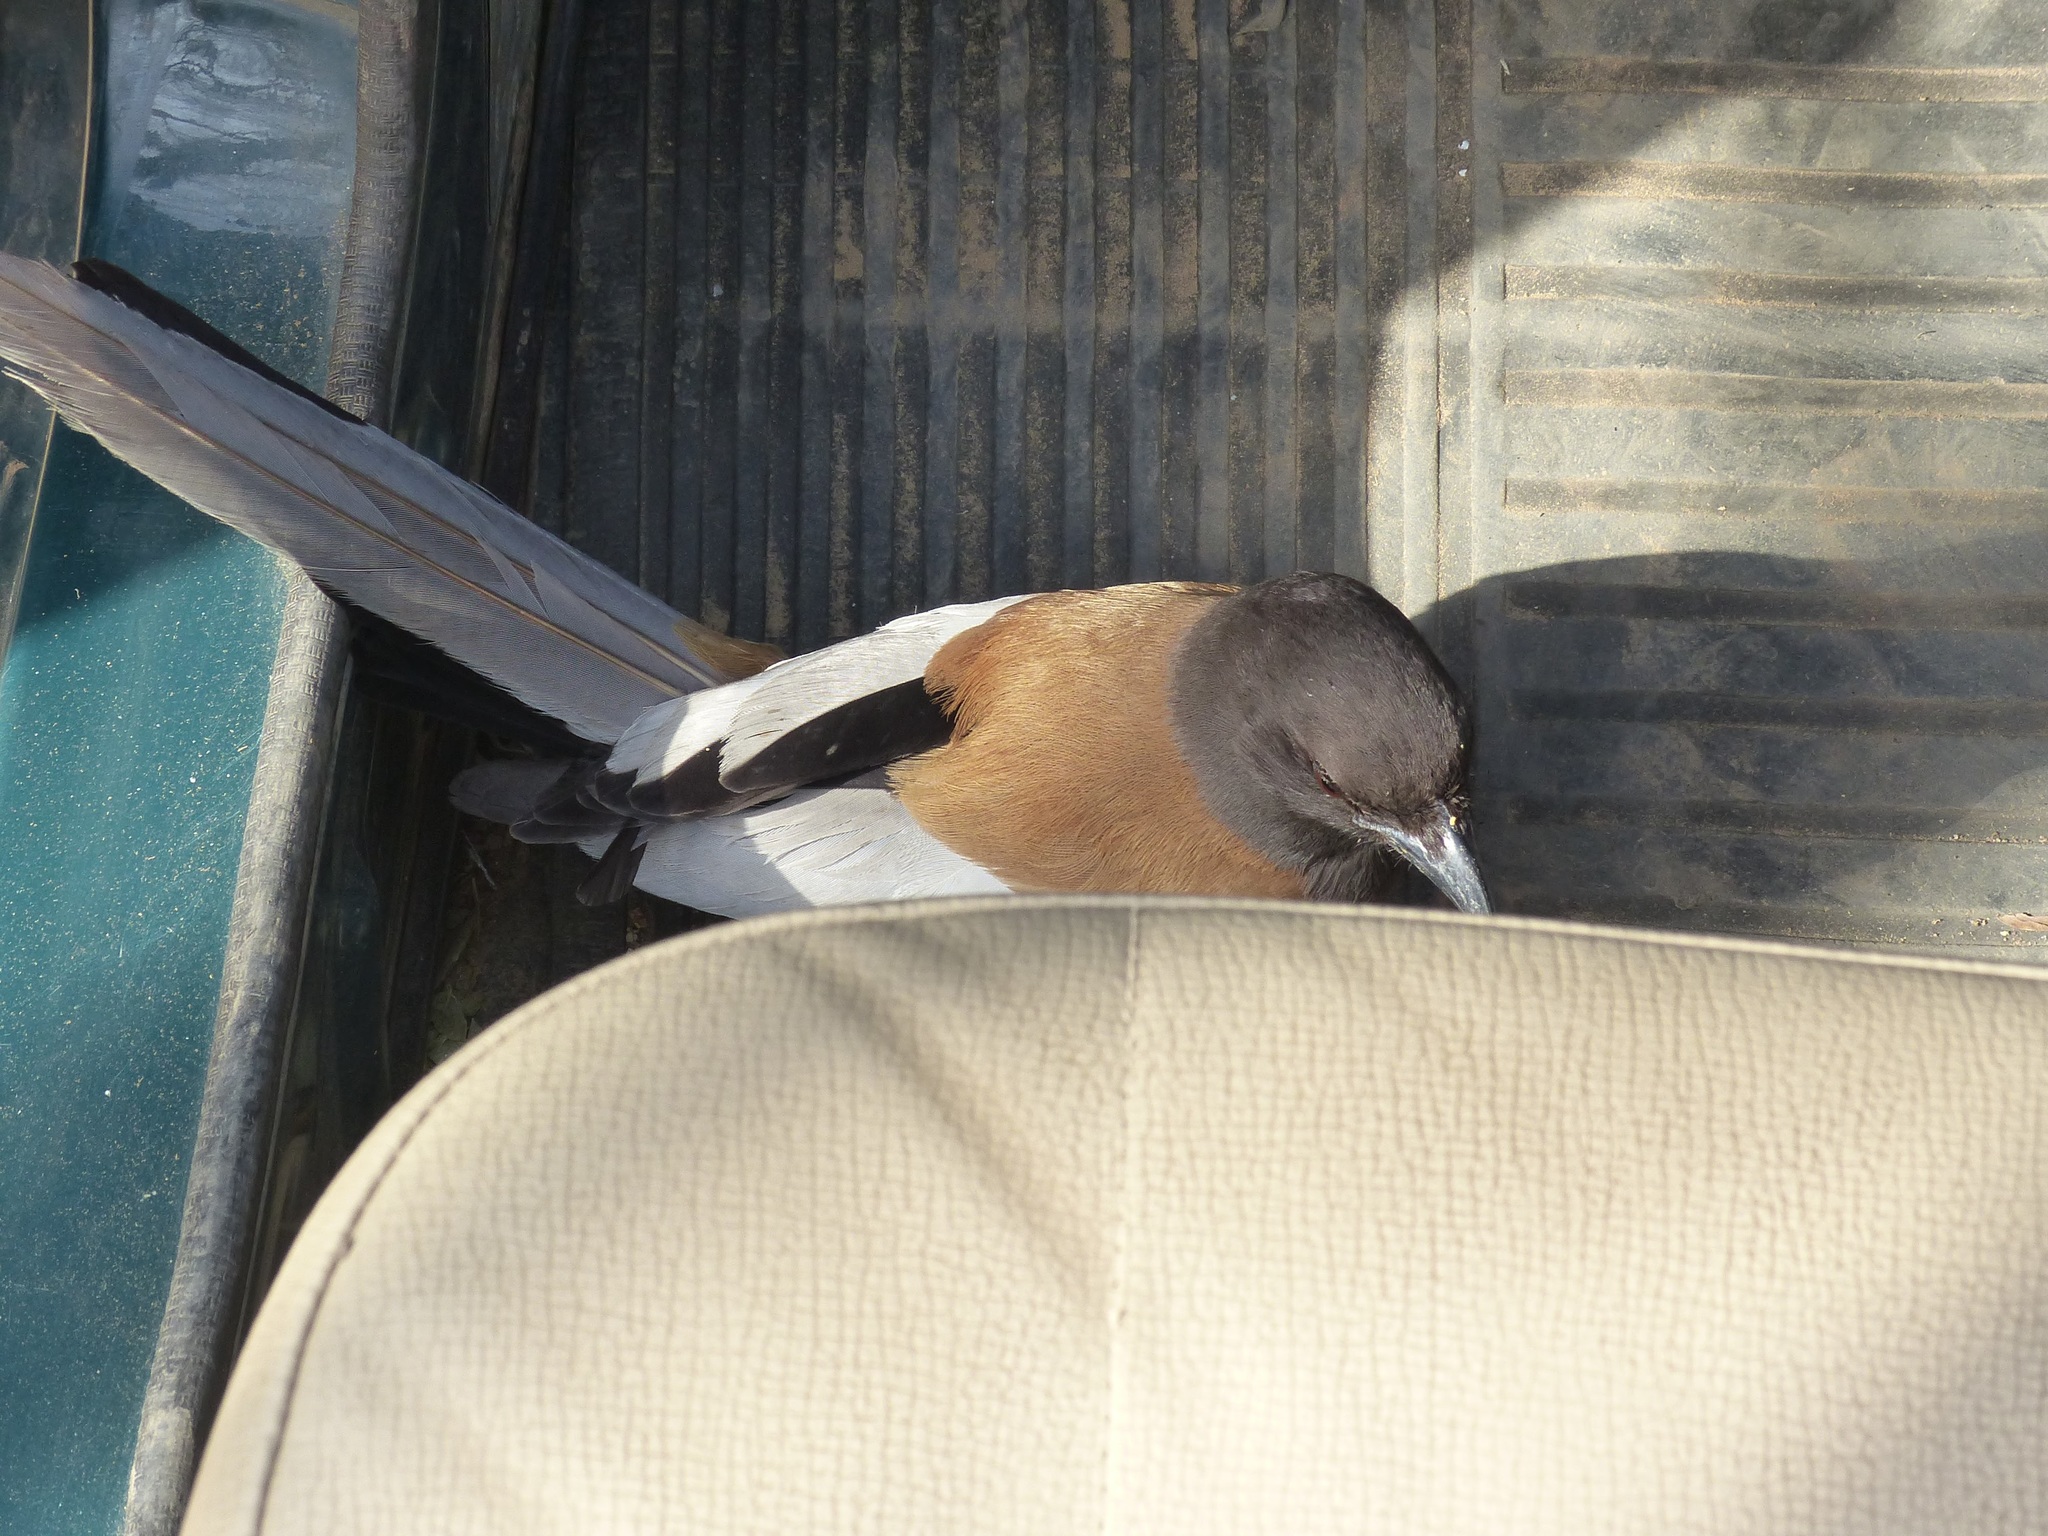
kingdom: Animalia
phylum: Chordata
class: Aves
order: Passeriformes
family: Corvidae
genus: Dendrocitta
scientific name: Dendrocitta vagabunda
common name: Rufous treepie
